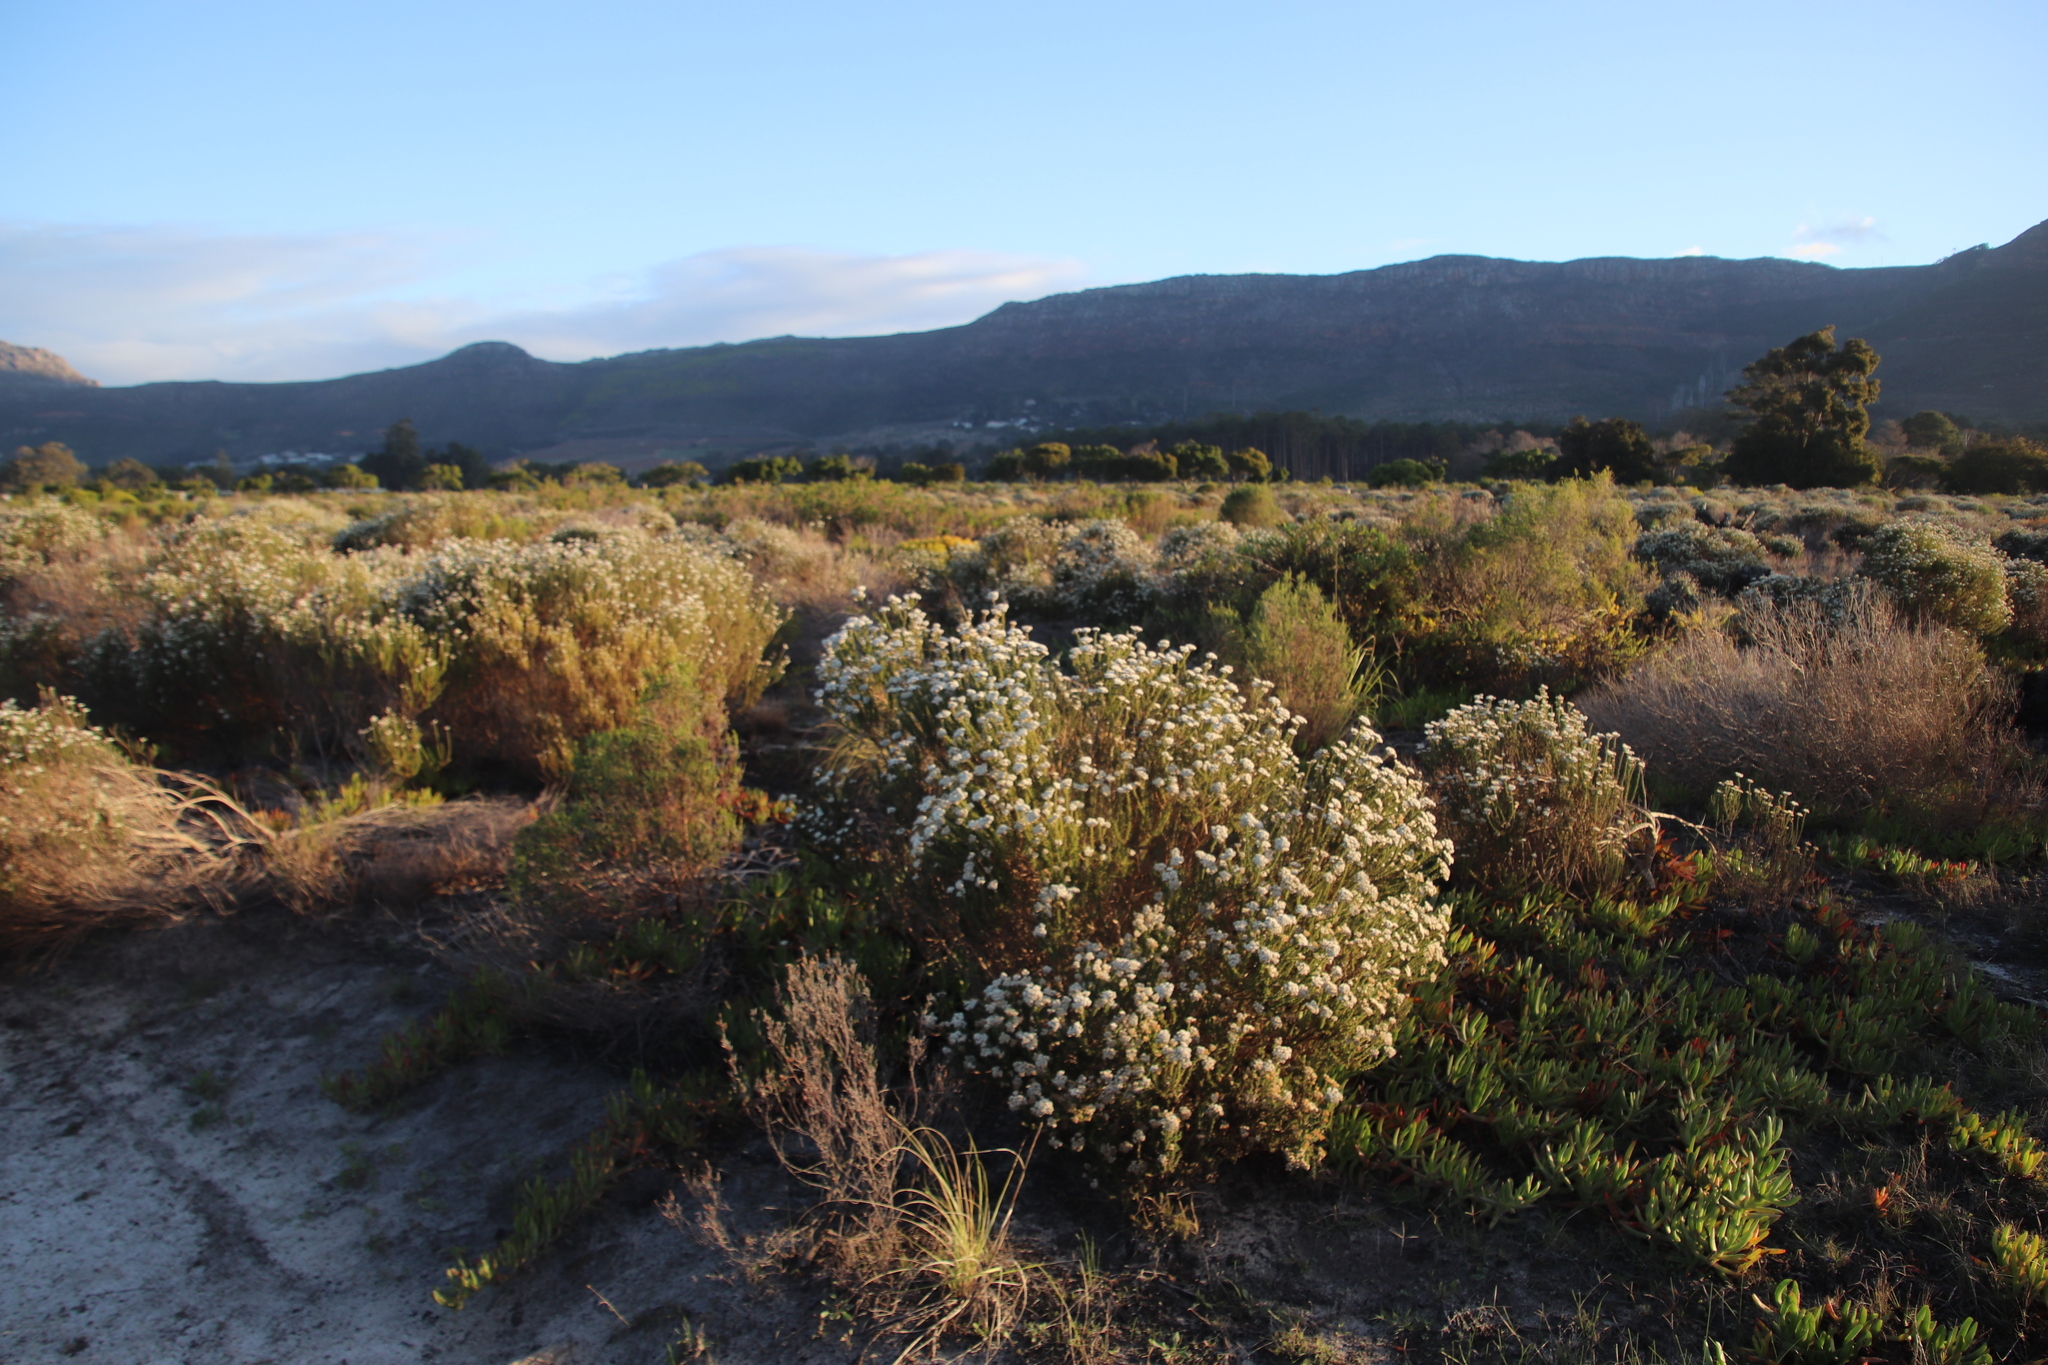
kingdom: Plantae
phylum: Tracheophyta
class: Magnoliopsida
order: Asterales
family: Asteraceae
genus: Metalasia
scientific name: Metalasia densa
